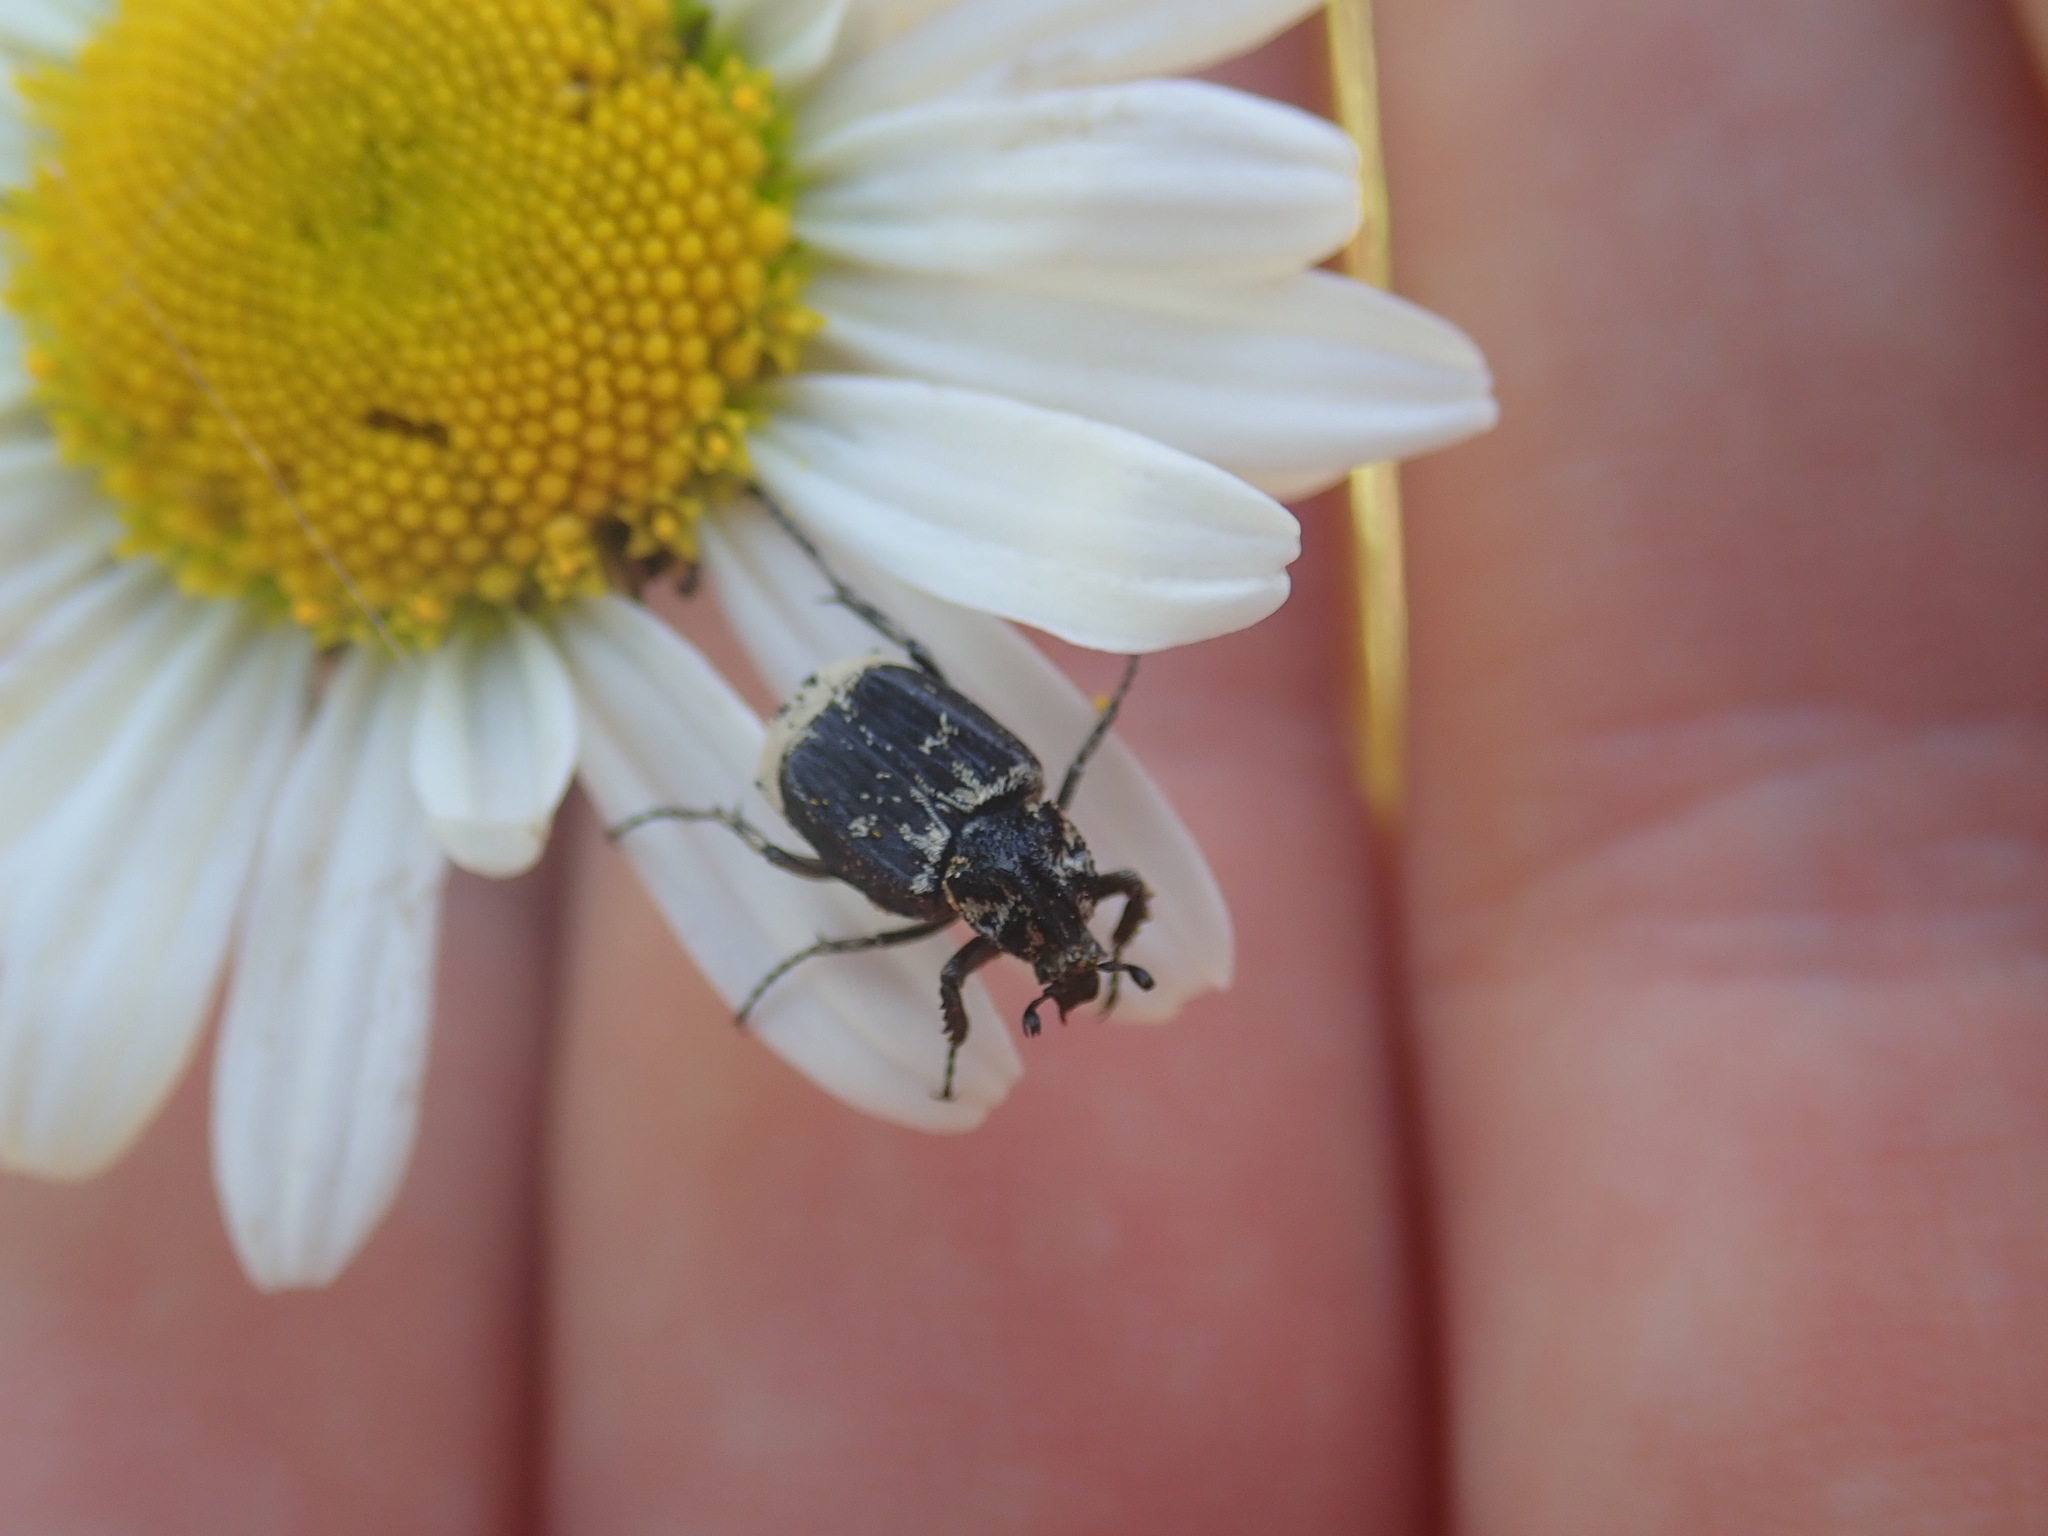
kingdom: Animalia
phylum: Arthropoda
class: Insecta
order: Coleoptera
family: Scarabaeidae
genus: Valgus
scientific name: Valgus hemipterus
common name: Bug flower chafer
